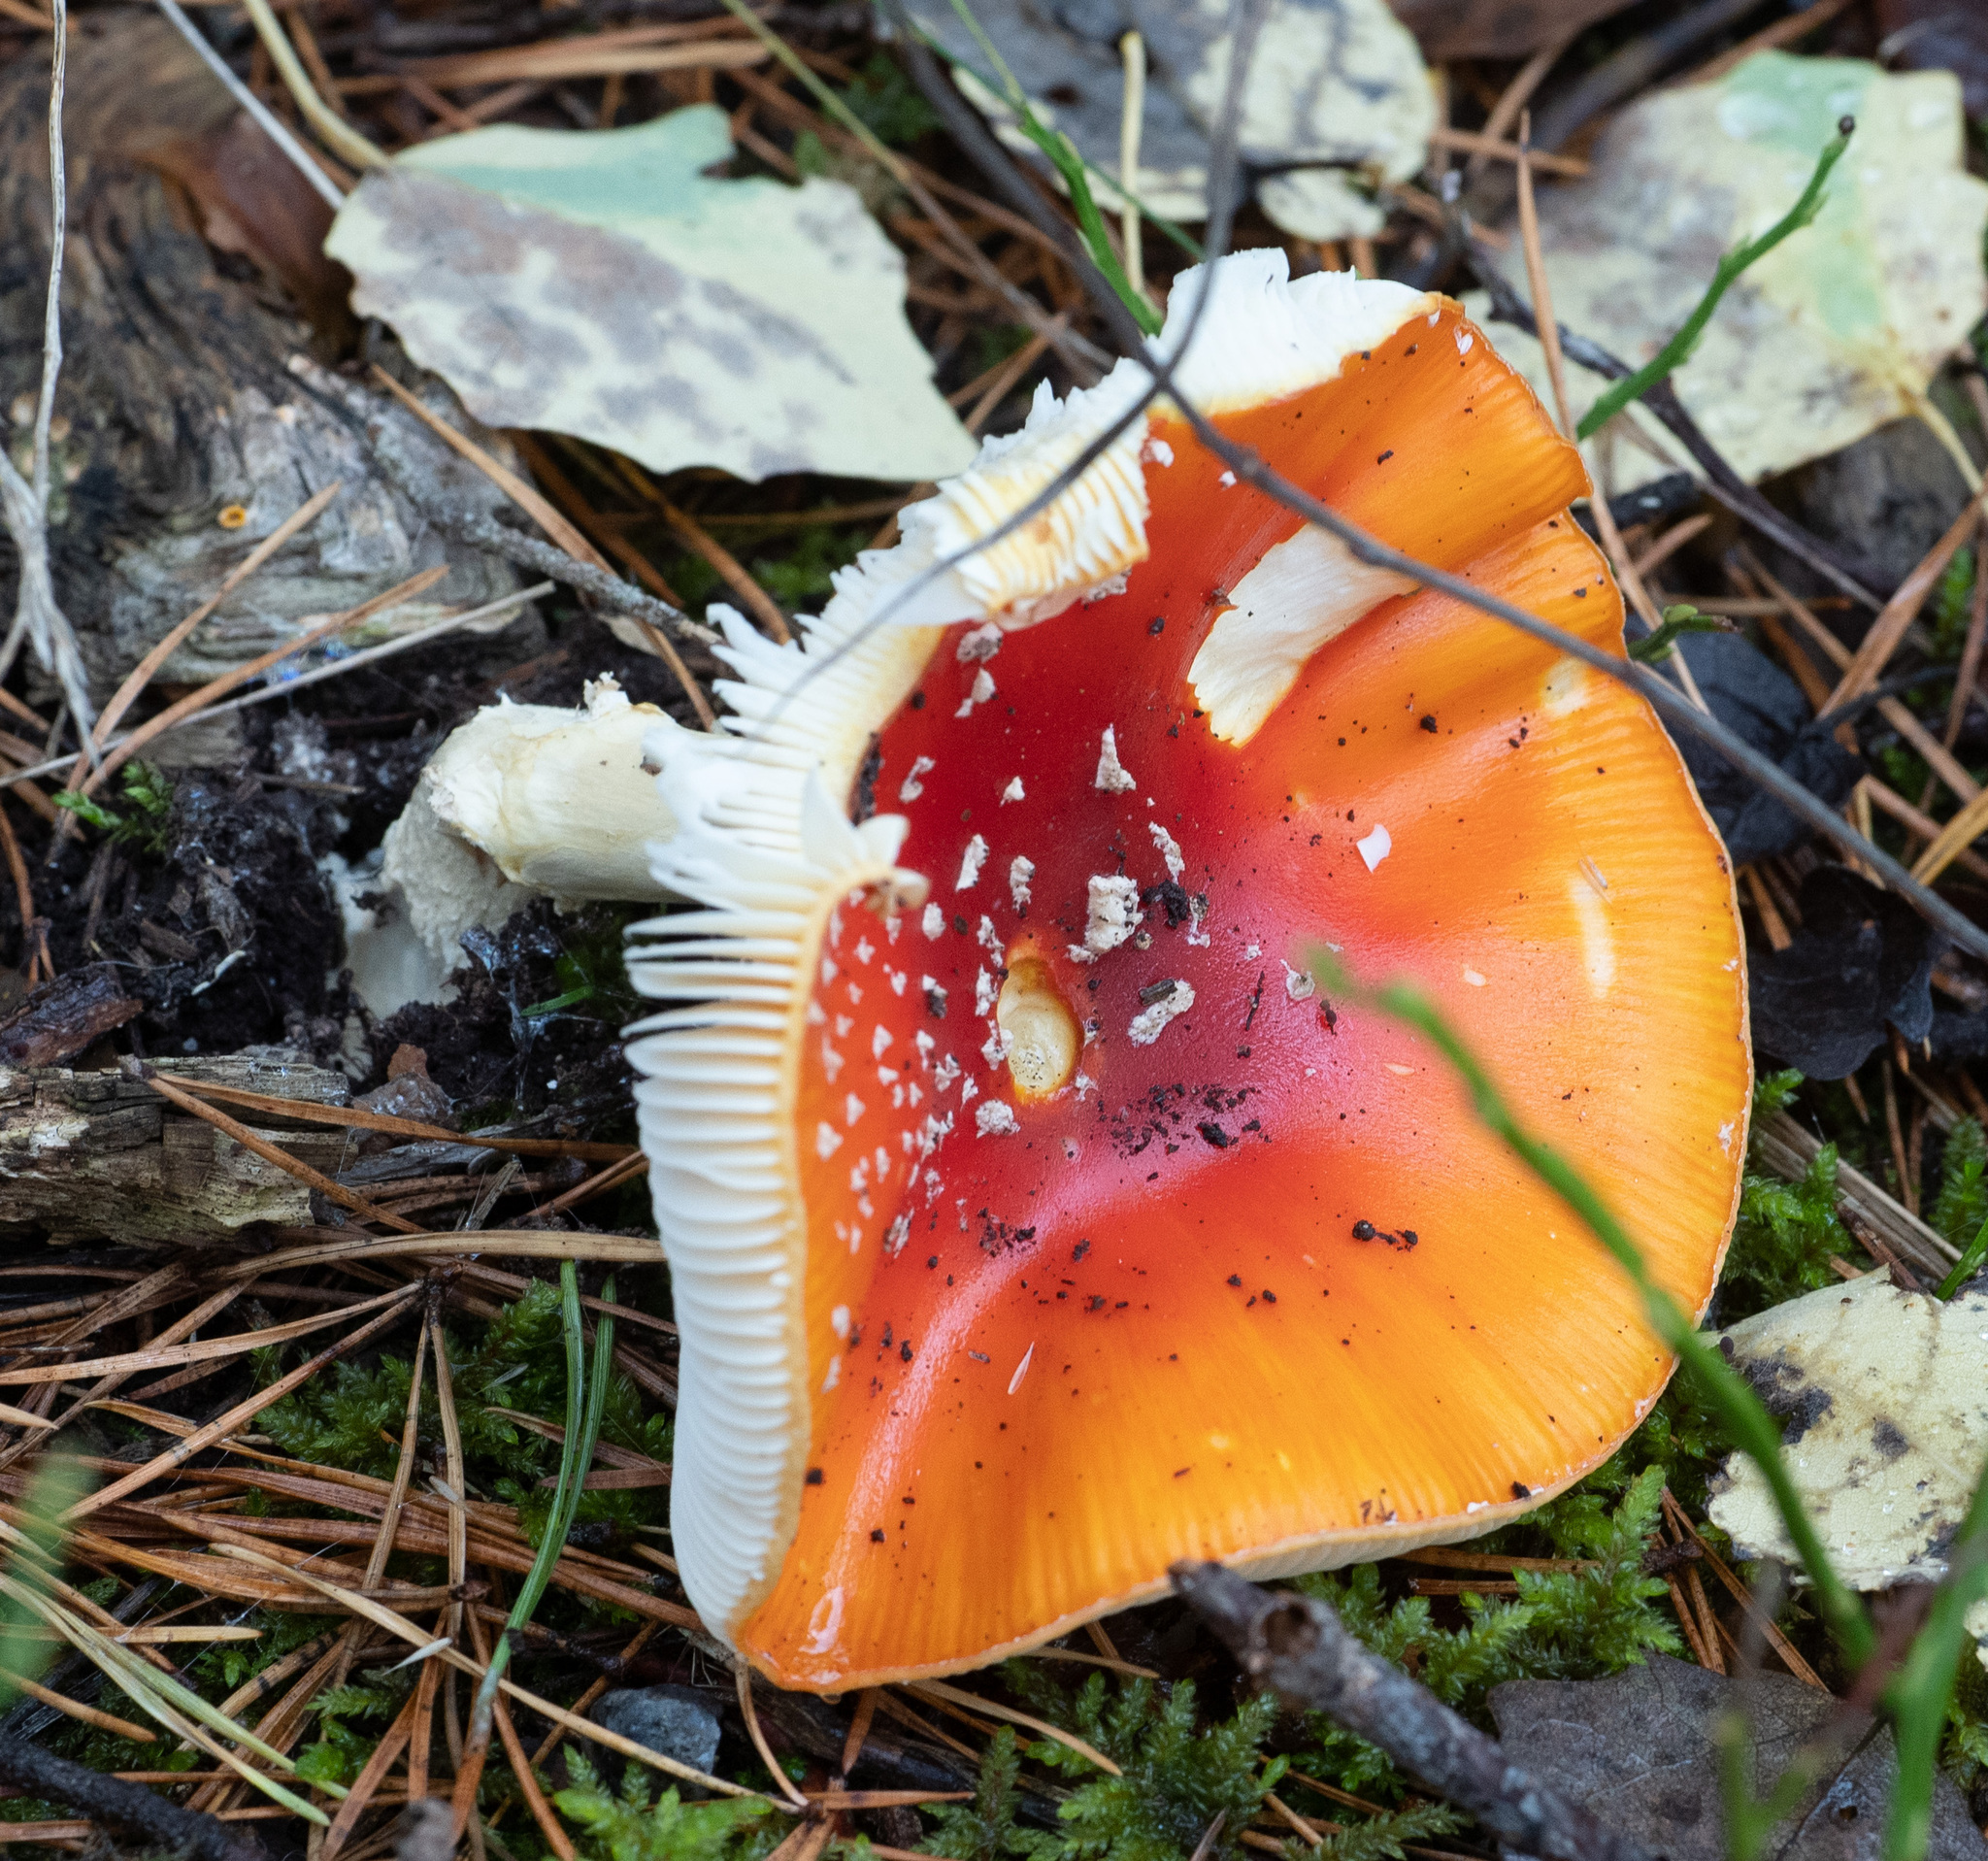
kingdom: Fungi
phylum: Basidiomycota
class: Agaricomycetes
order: Agaricales
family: Amanitaceae
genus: Amanita
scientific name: Amanita muscaria
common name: Fly agaric
